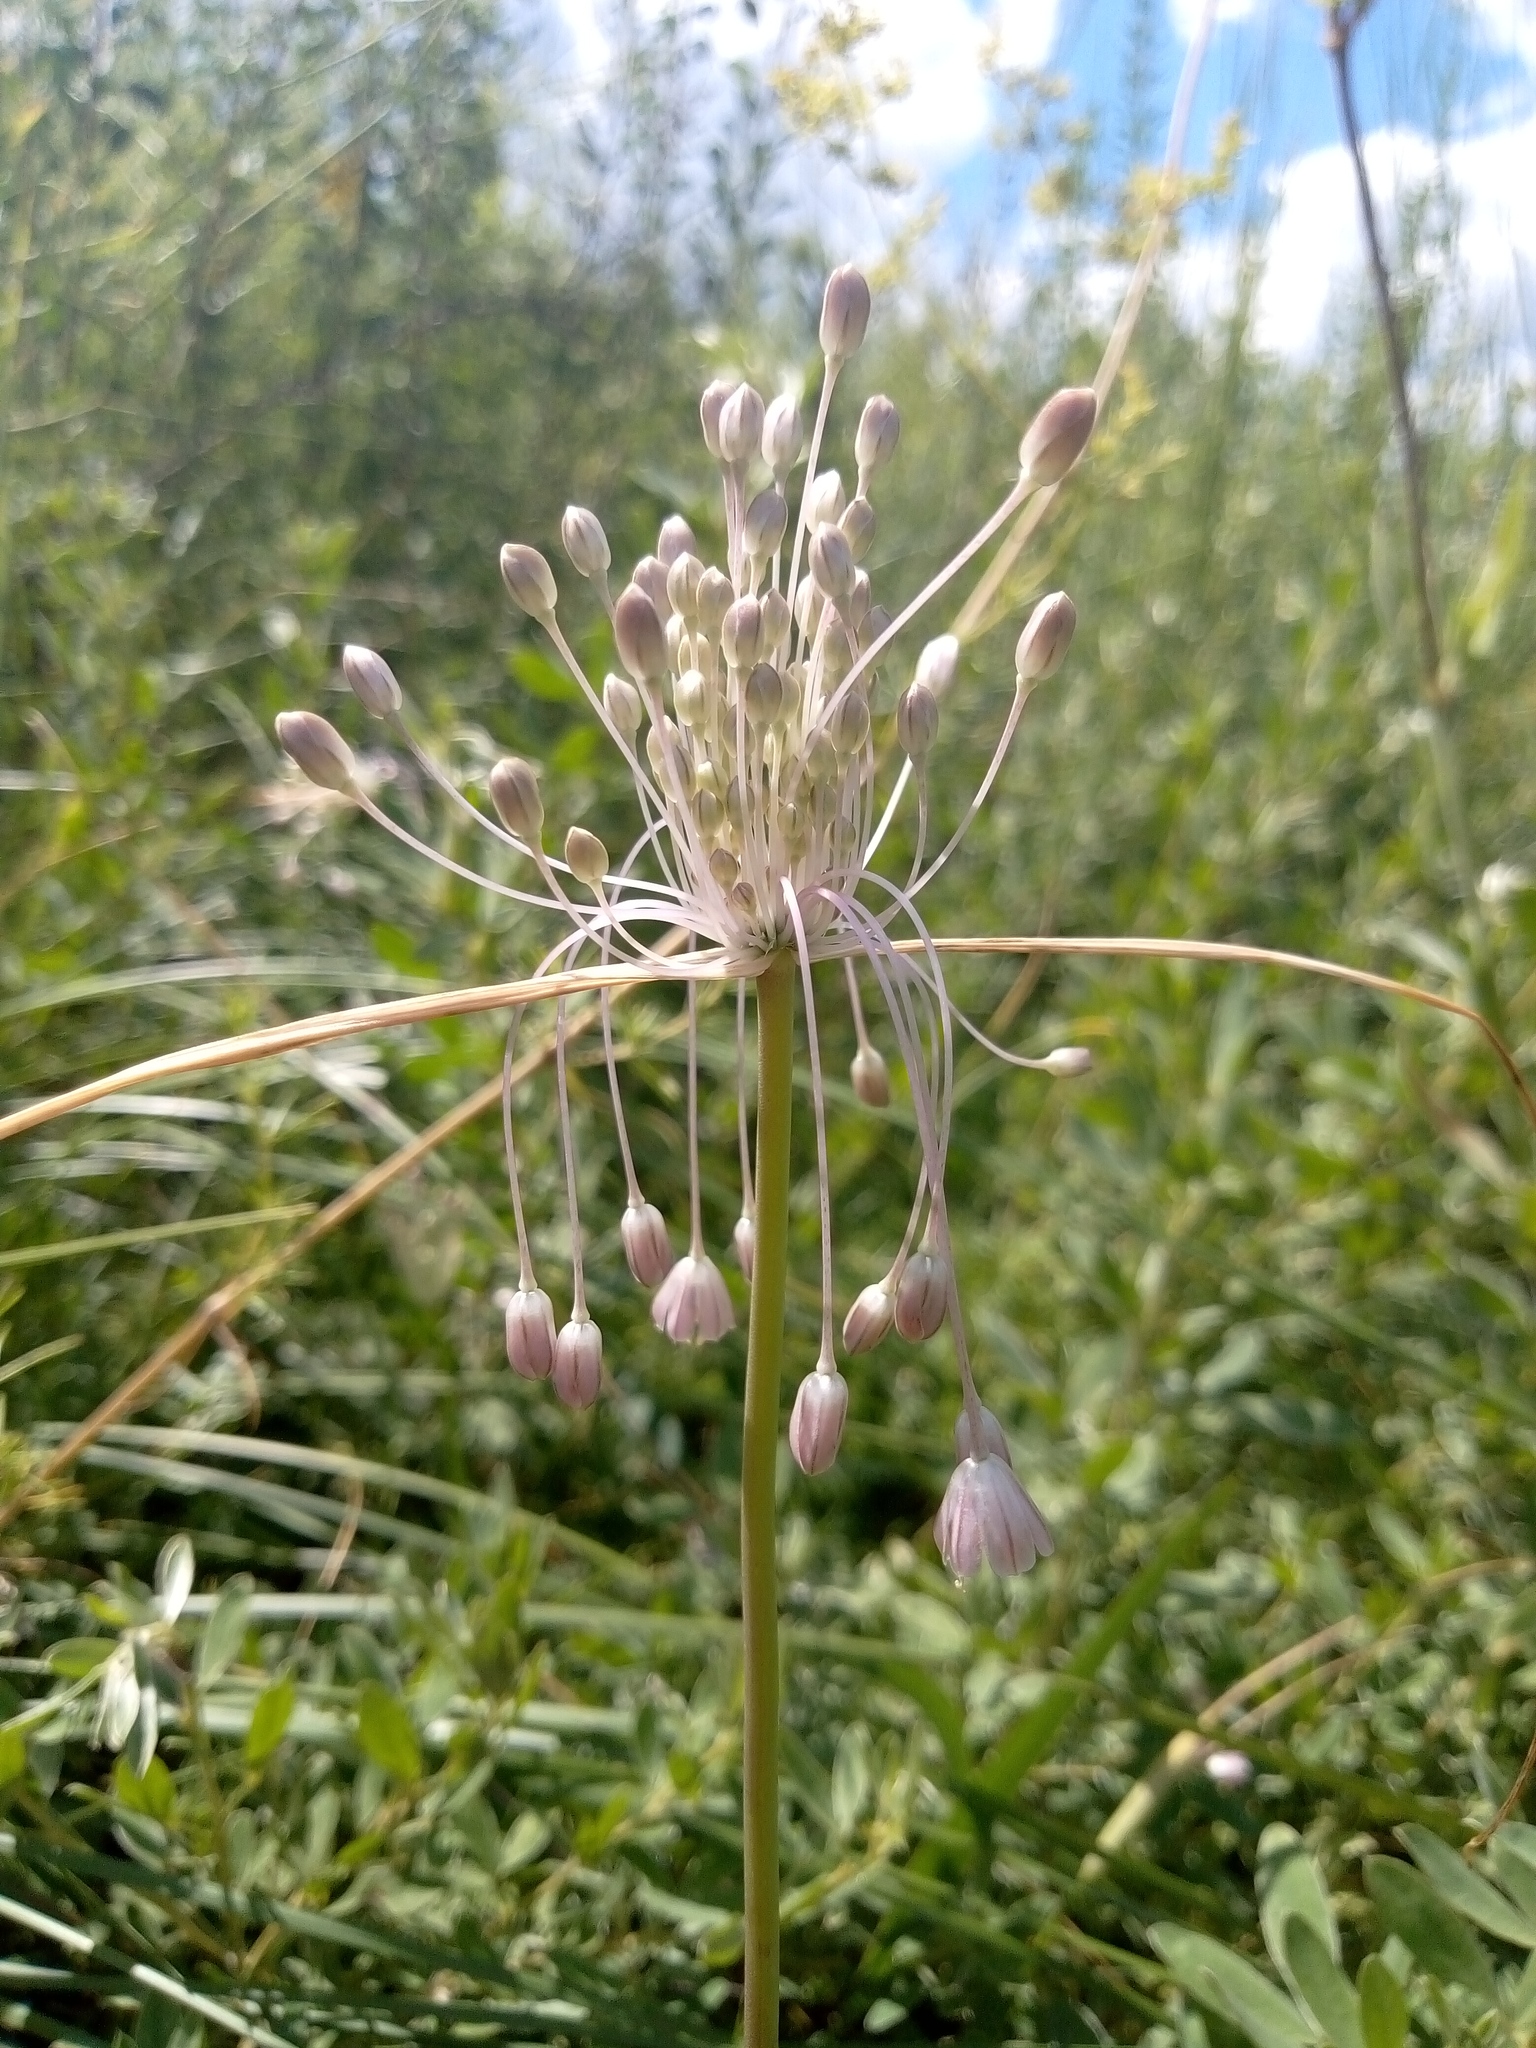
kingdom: Plantae
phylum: Tracheophyta
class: Liliopsida
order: Asparagales
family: Amaryllidaceae
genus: Allium
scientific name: Allium paniculatum
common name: Pale garlic
